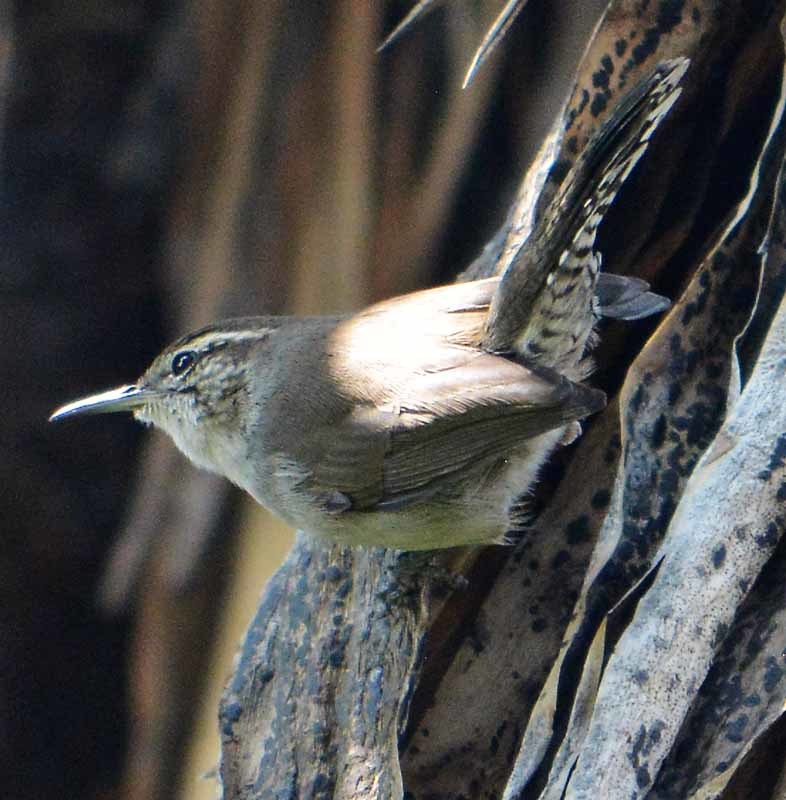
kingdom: Animalia
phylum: Chordata
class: Aves
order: Passeriformes
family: Troglodytidae
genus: Thryomanes
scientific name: Thryomanes bewickii
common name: Bewick's wren
